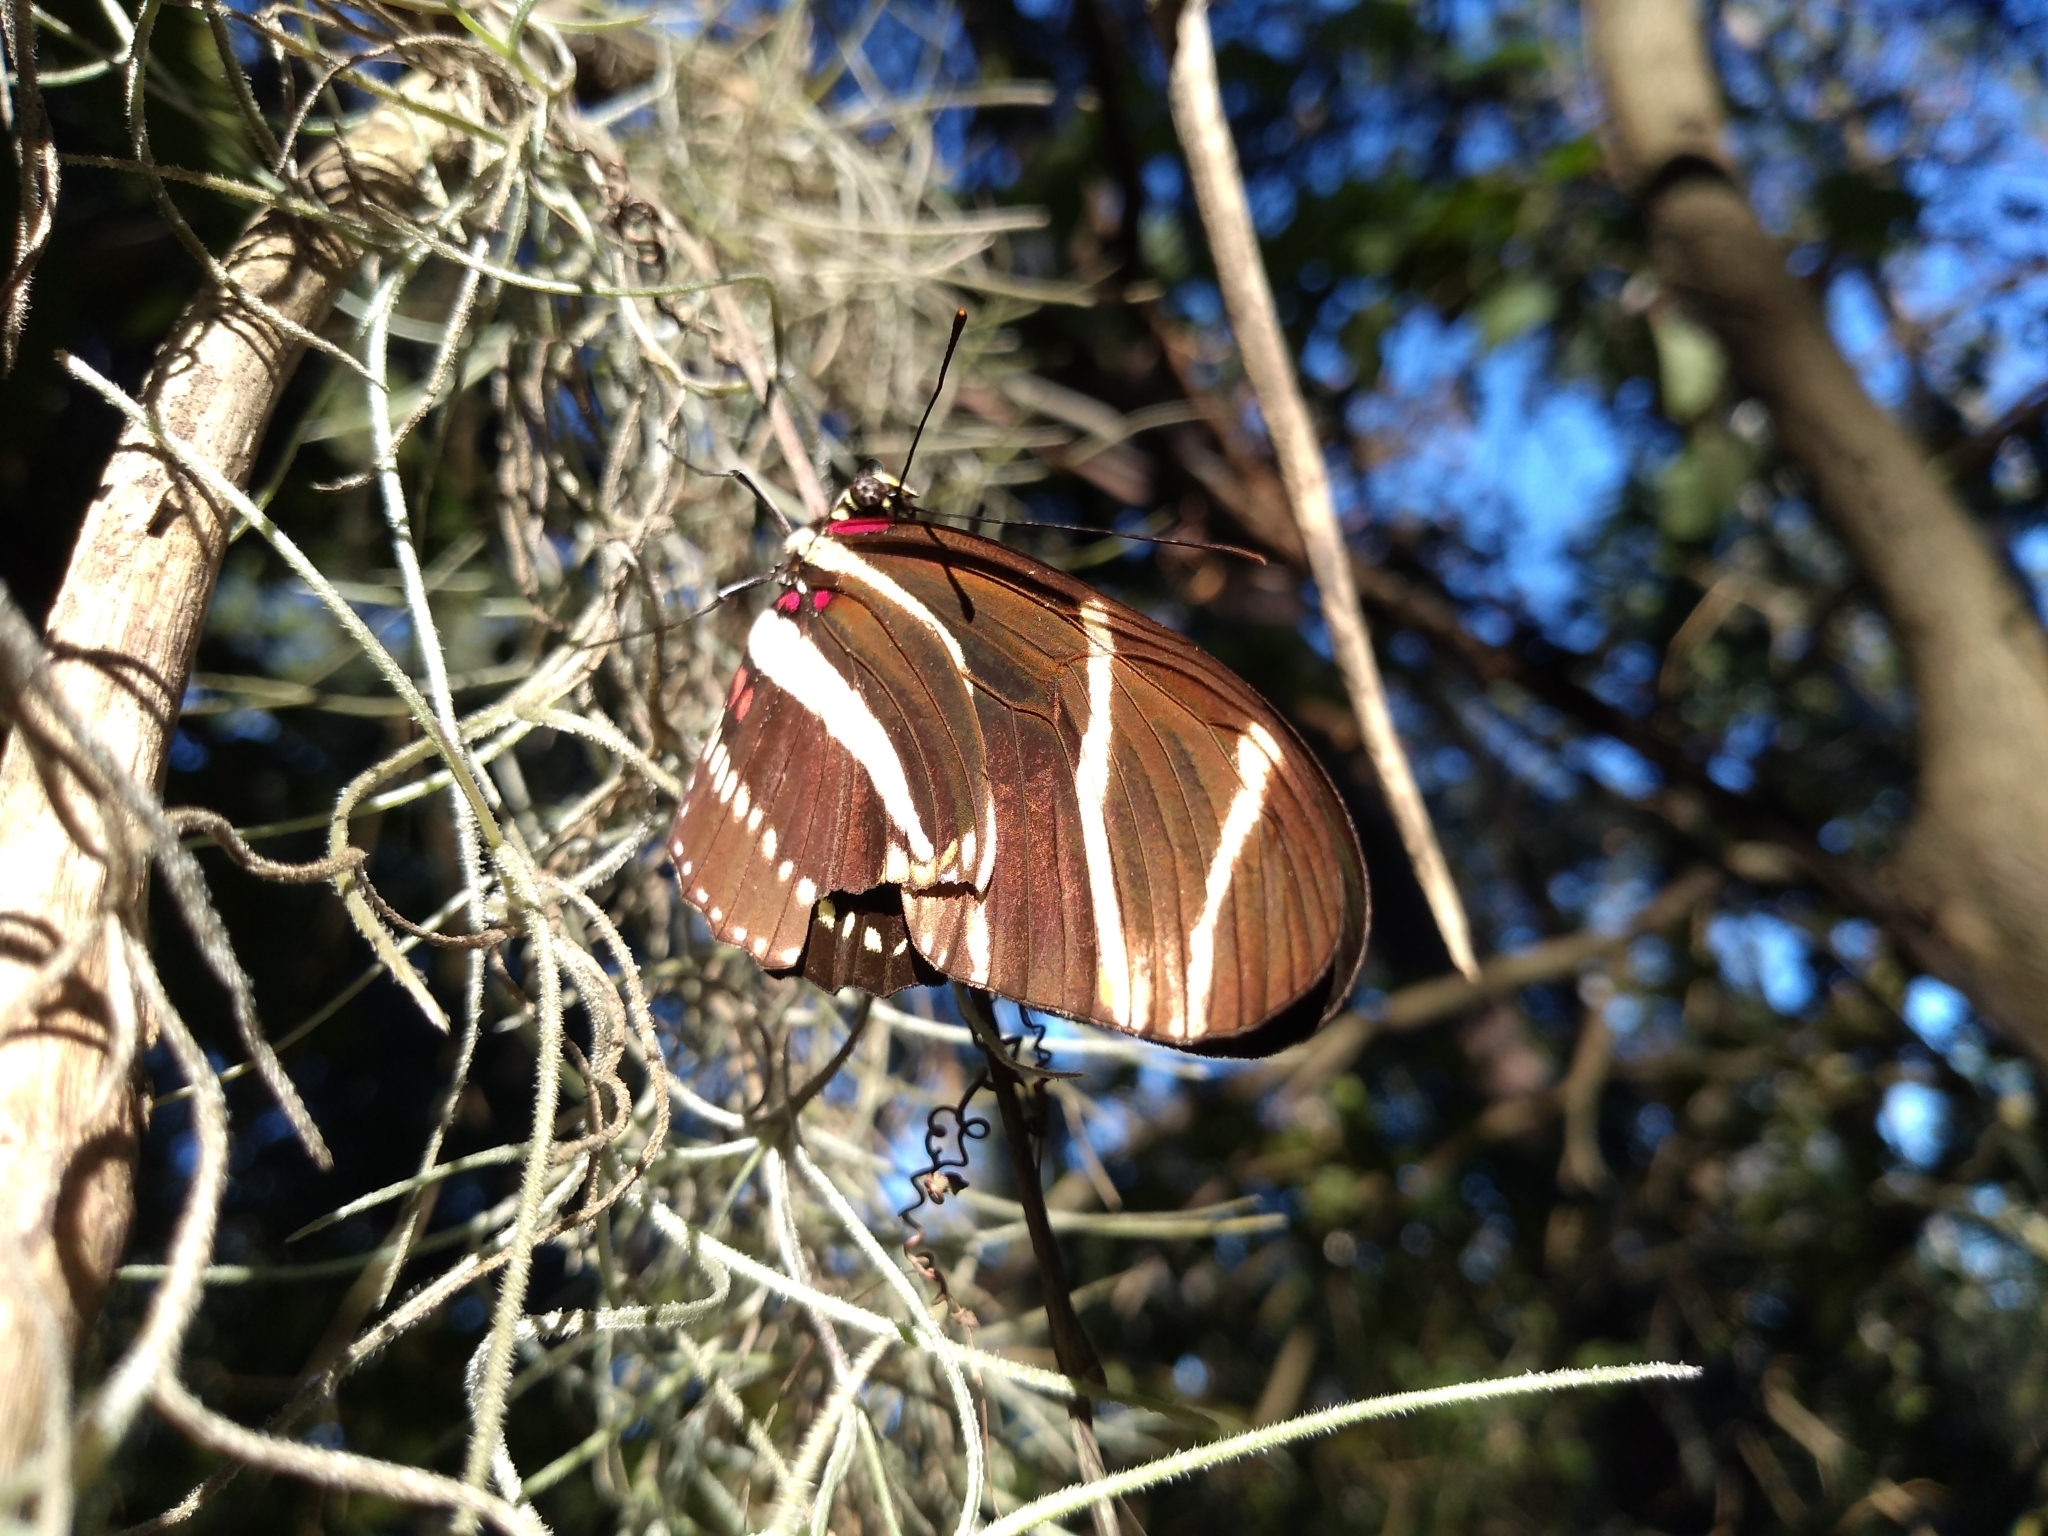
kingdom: Animalia
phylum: Arthropoda
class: Insecta
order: Lepidoptera
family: Nymphalidae
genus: Heliconius
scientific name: Heliconius charithonia
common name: Zebra long wing
